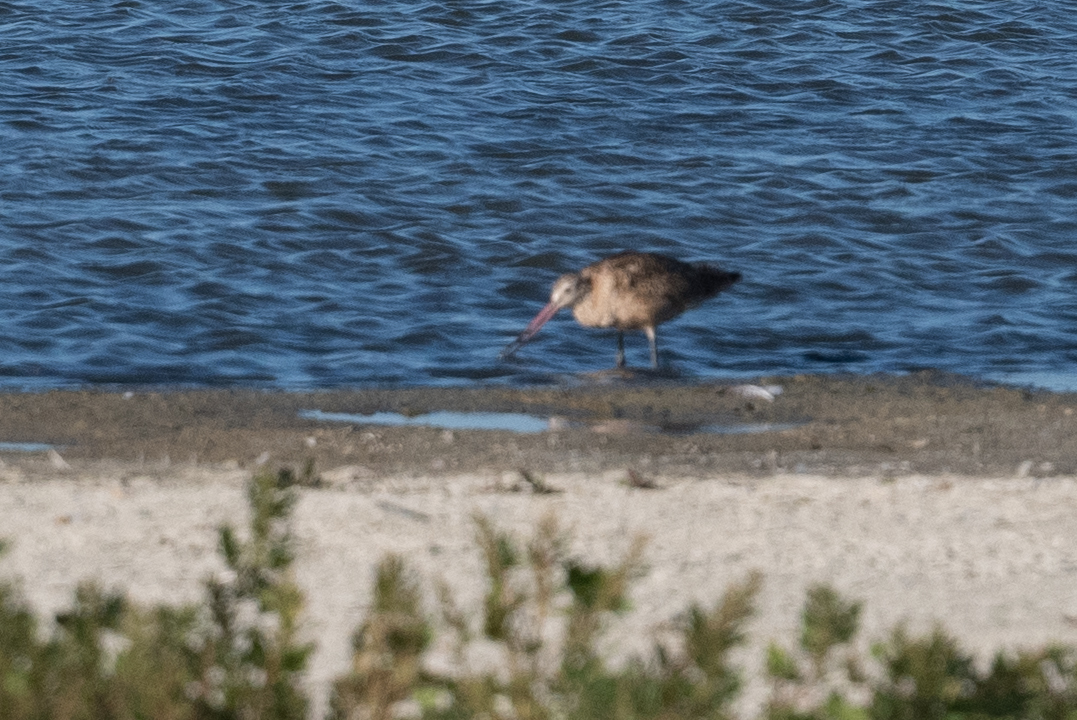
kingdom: Animalia
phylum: Chordata
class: Aves
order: Charadriiformes
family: Scolopacidae
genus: Limosa
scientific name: Limosa fedoa
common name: Marbled godwit
